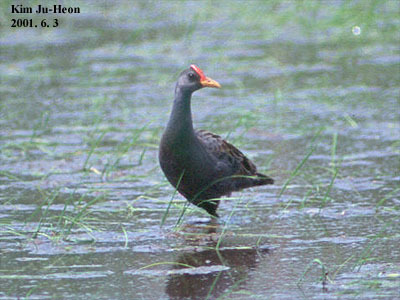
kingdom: Animalia
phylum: Chordata
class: Aves
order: Gruiformes
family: Rallidae
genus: Gallicrex
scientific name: Gallicrex cinerea
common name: Watercock
